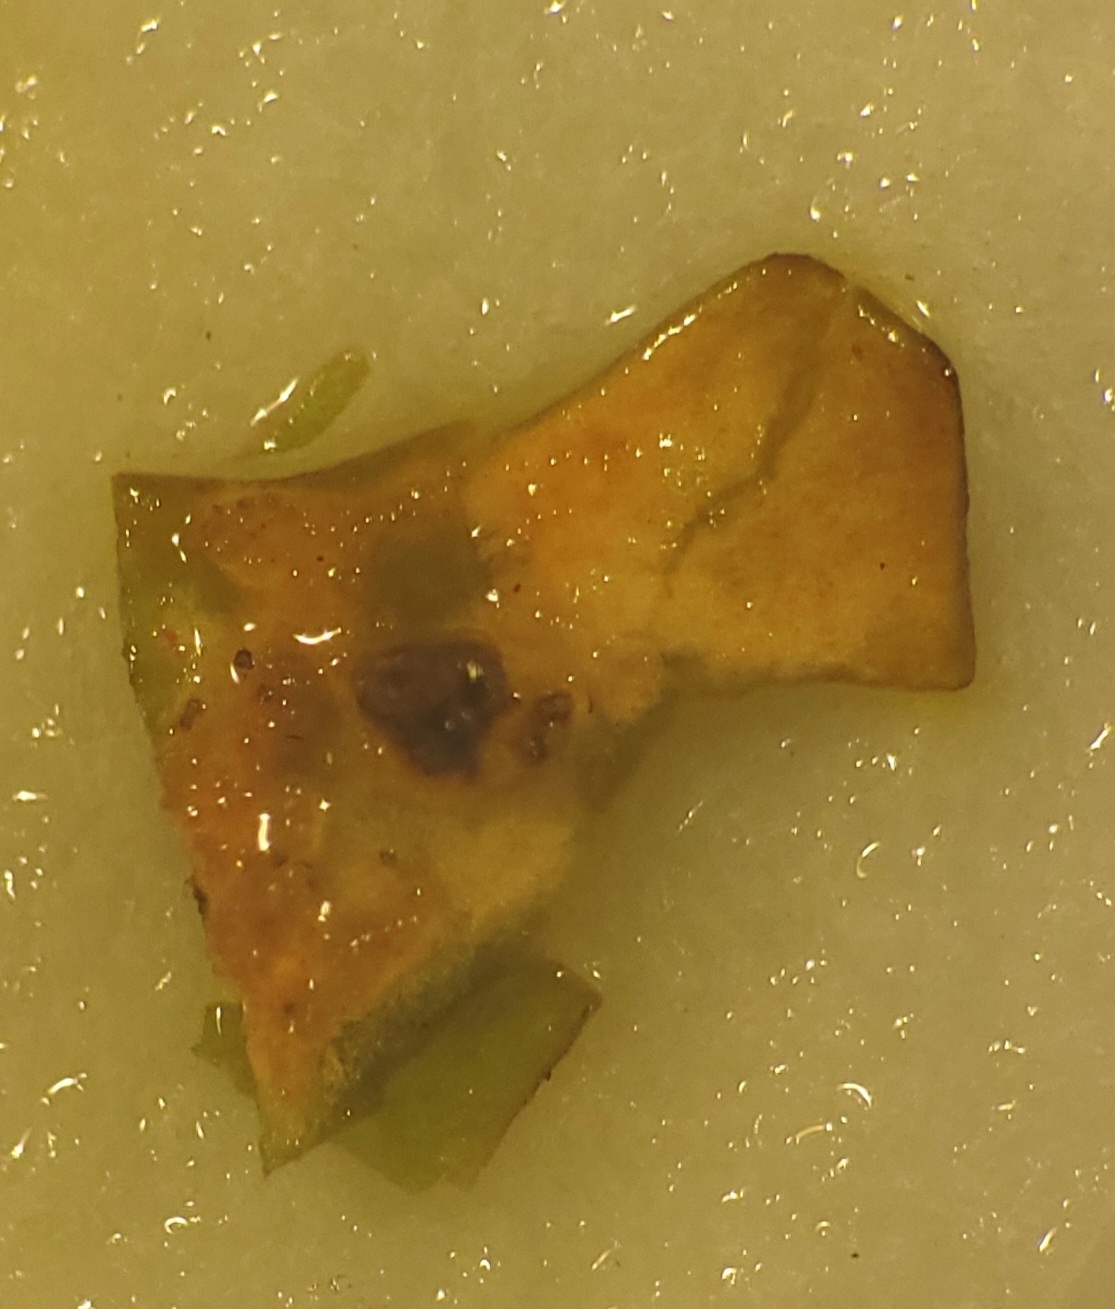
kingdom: Fungi
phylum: Ascomycota
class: Lecanoromycetes
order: Peltigerales
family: Lobariaceae
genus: Lobaria
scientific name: Lobaria pulmonaria
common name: Lungwort
